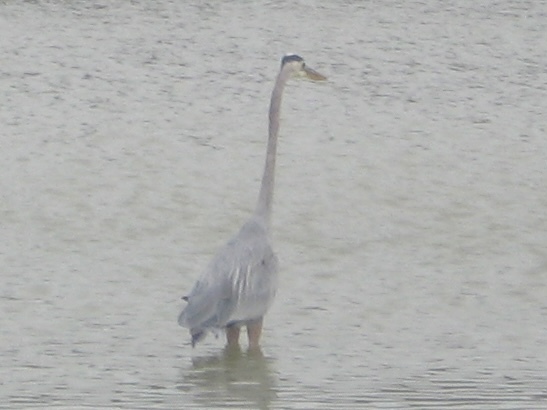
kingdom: Animalia
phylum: Chordata
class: Aves
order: Pelecaniformes
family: Ardeidae
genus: Ardea
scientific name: Ardea herodias
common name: Great blue heron
